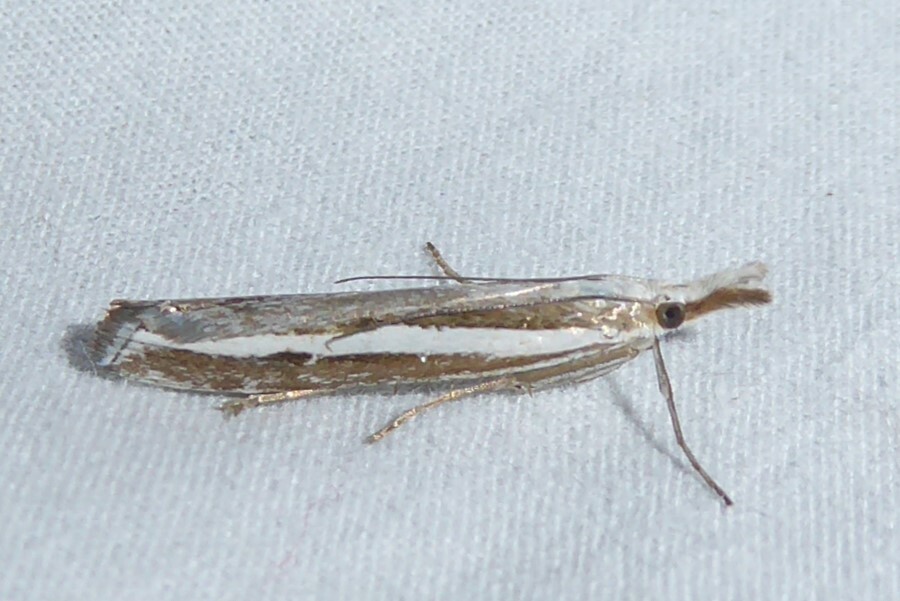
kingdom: Animalia
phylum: Arthropoda
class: Insecta
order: Lepidoptera
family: Crambidae
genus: Orocrambus
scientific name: Orocrambus vittellus
